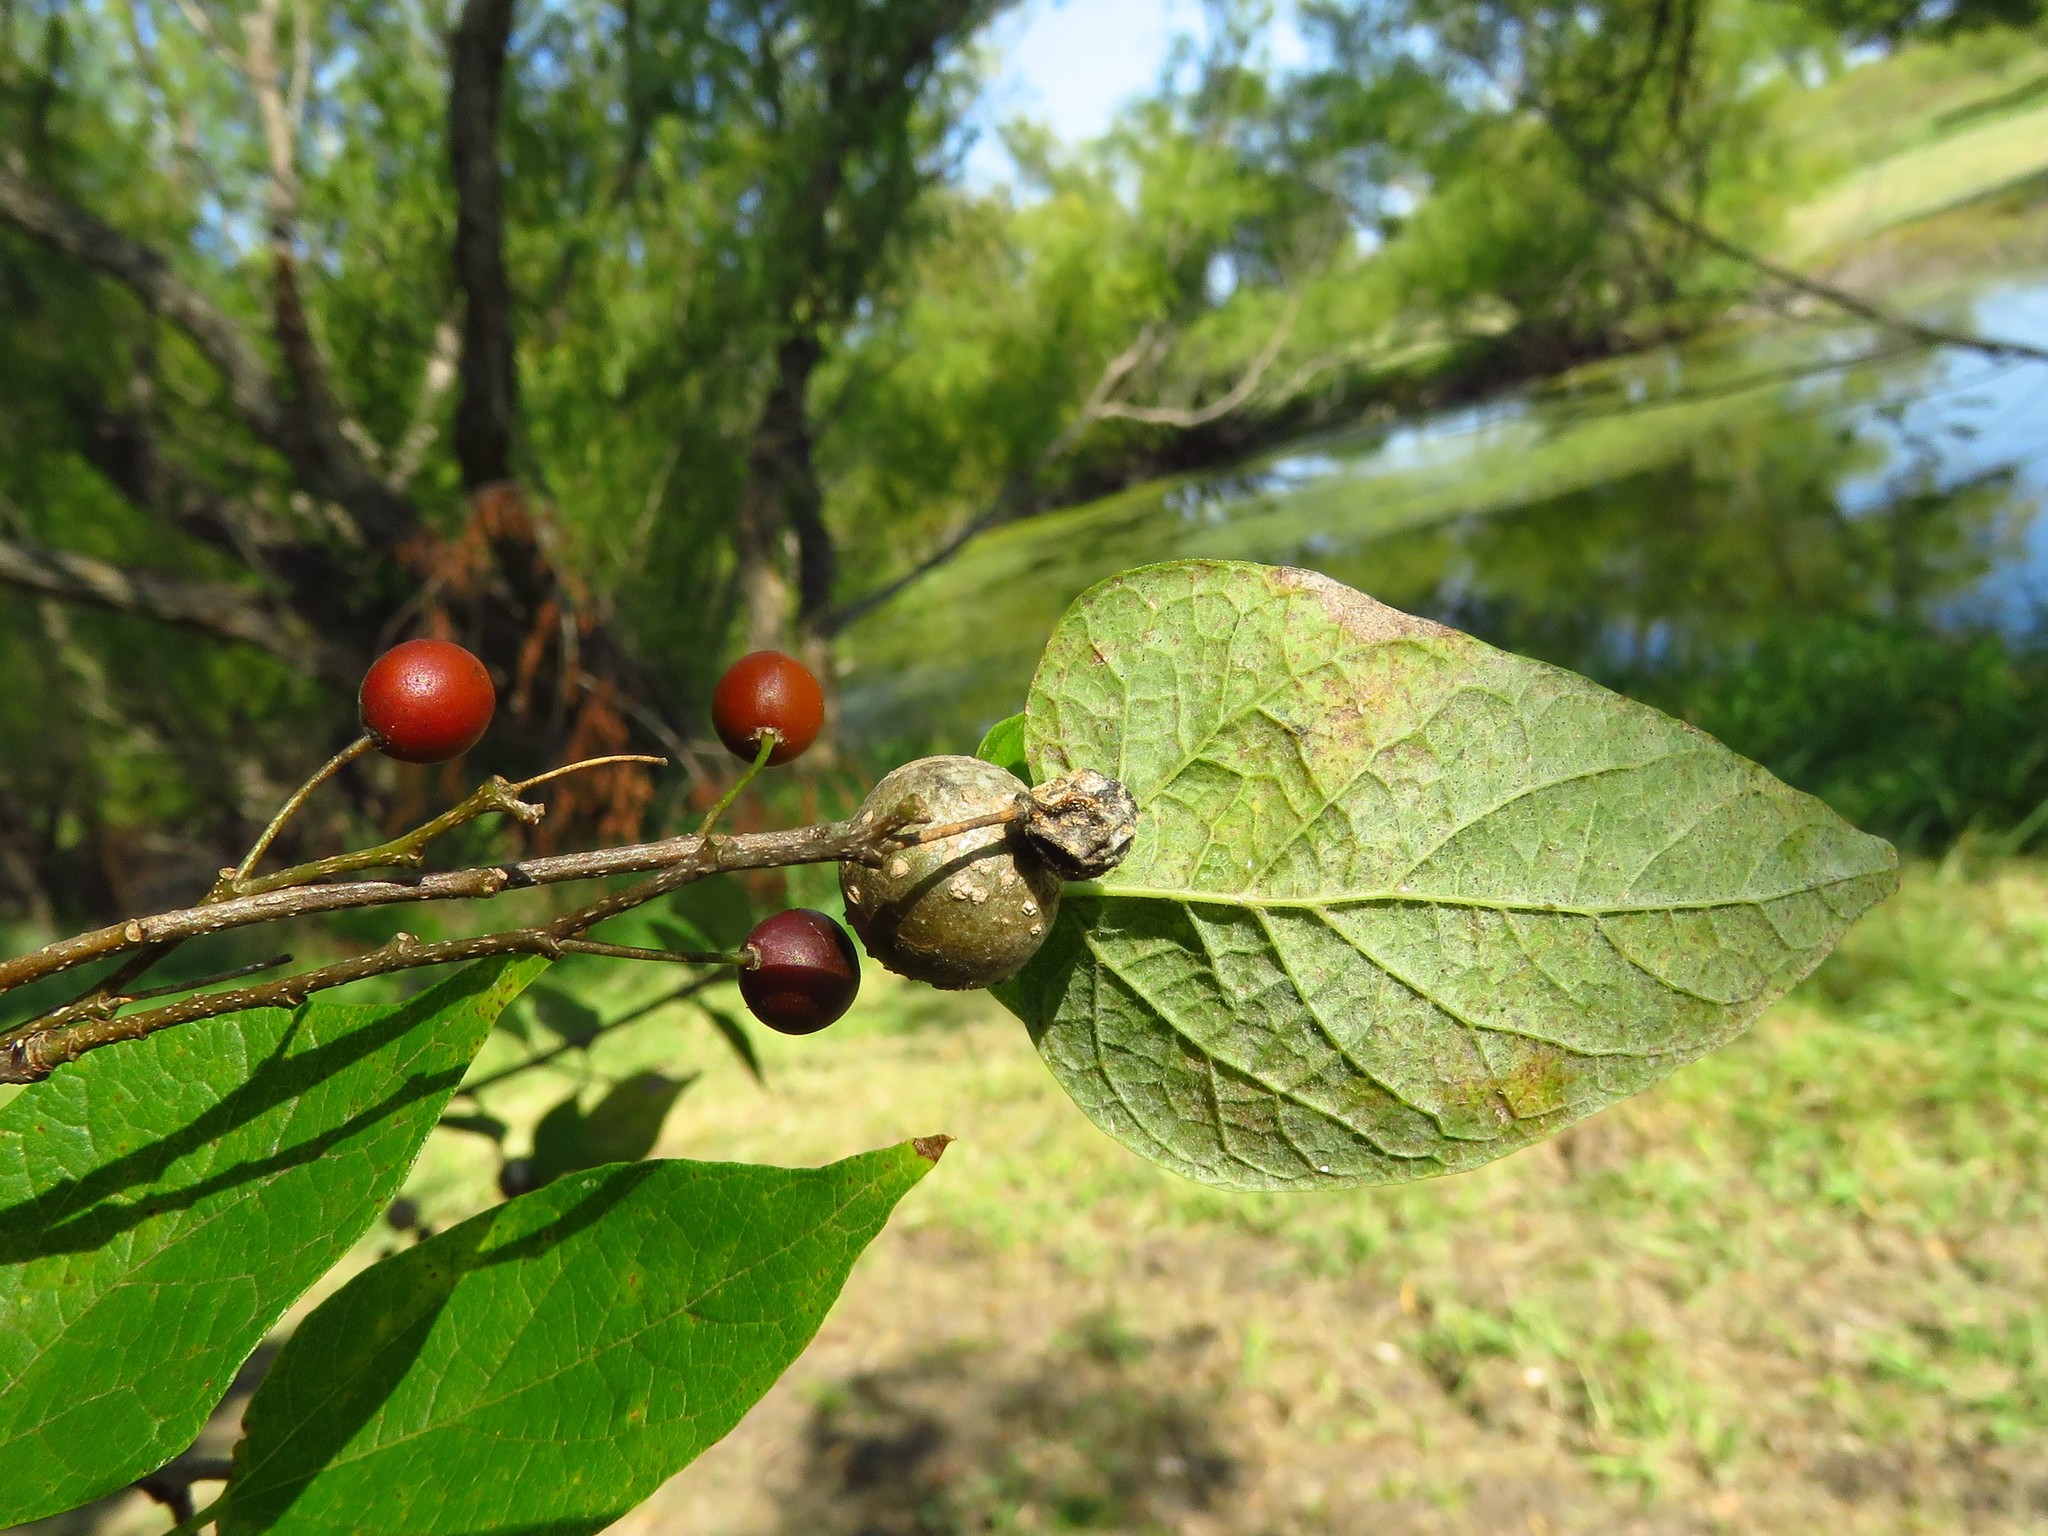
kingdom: Animalia
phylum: Arthropoda
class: Insecta
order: Hemiptera
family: Aphalaridae
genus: Pachypsylla
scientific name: Pachypsylla venusta
